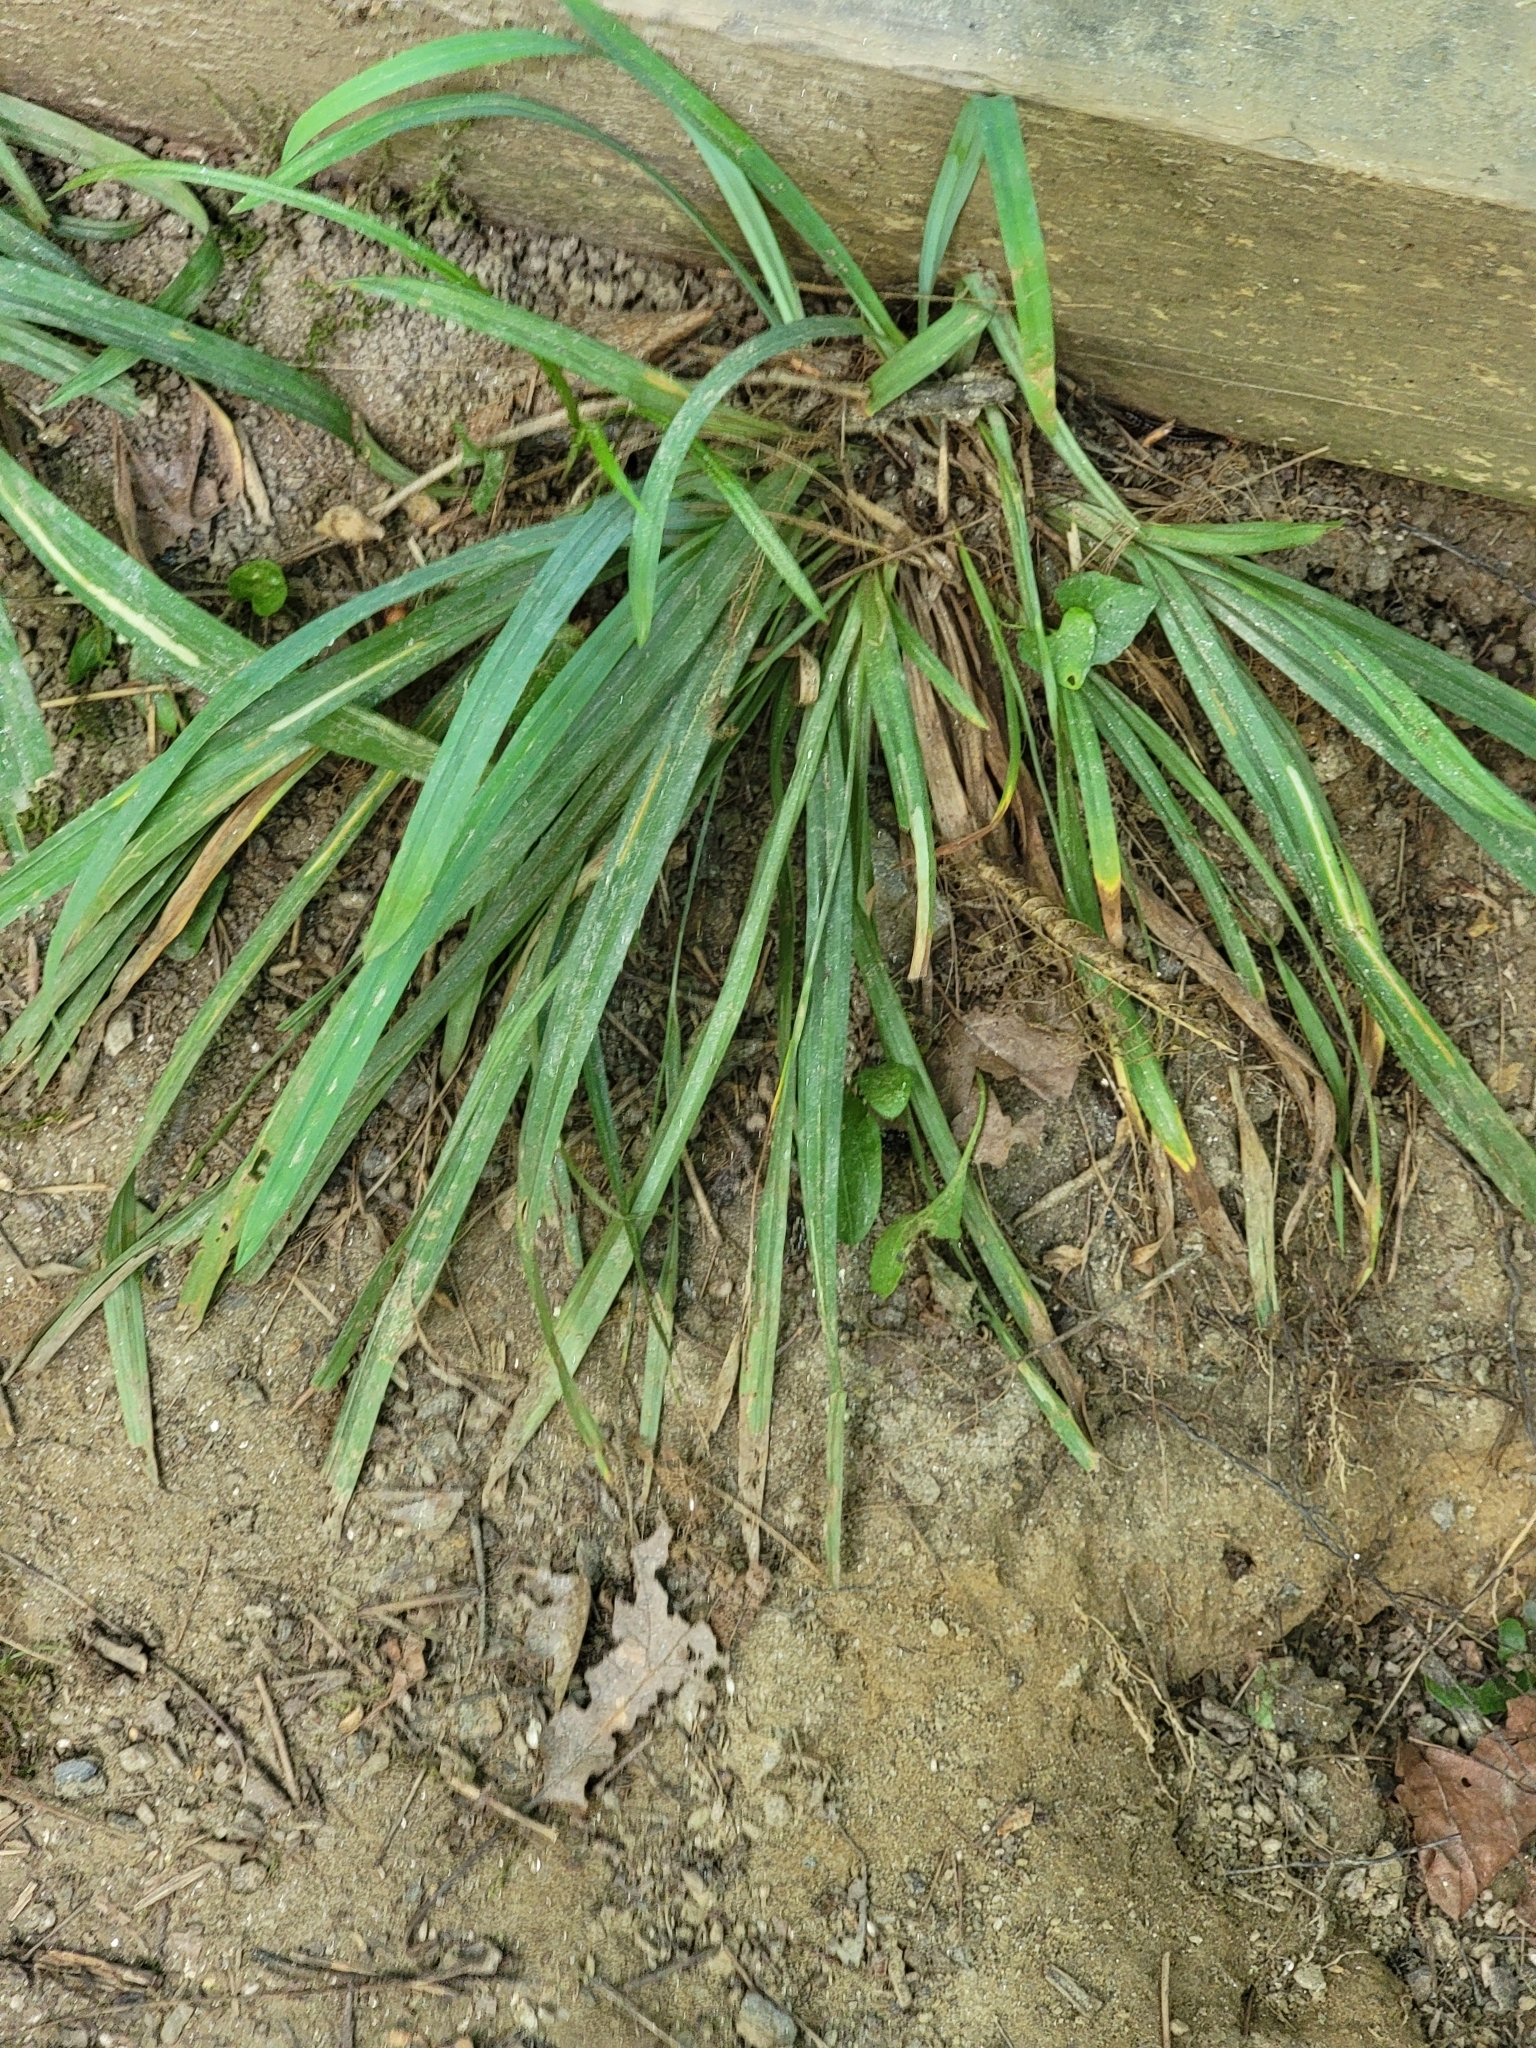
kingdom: Plantae
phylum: Tracheophyta
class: Liliopsida
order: Poales
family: Cyperaceae
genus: Carex
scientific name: Carex
